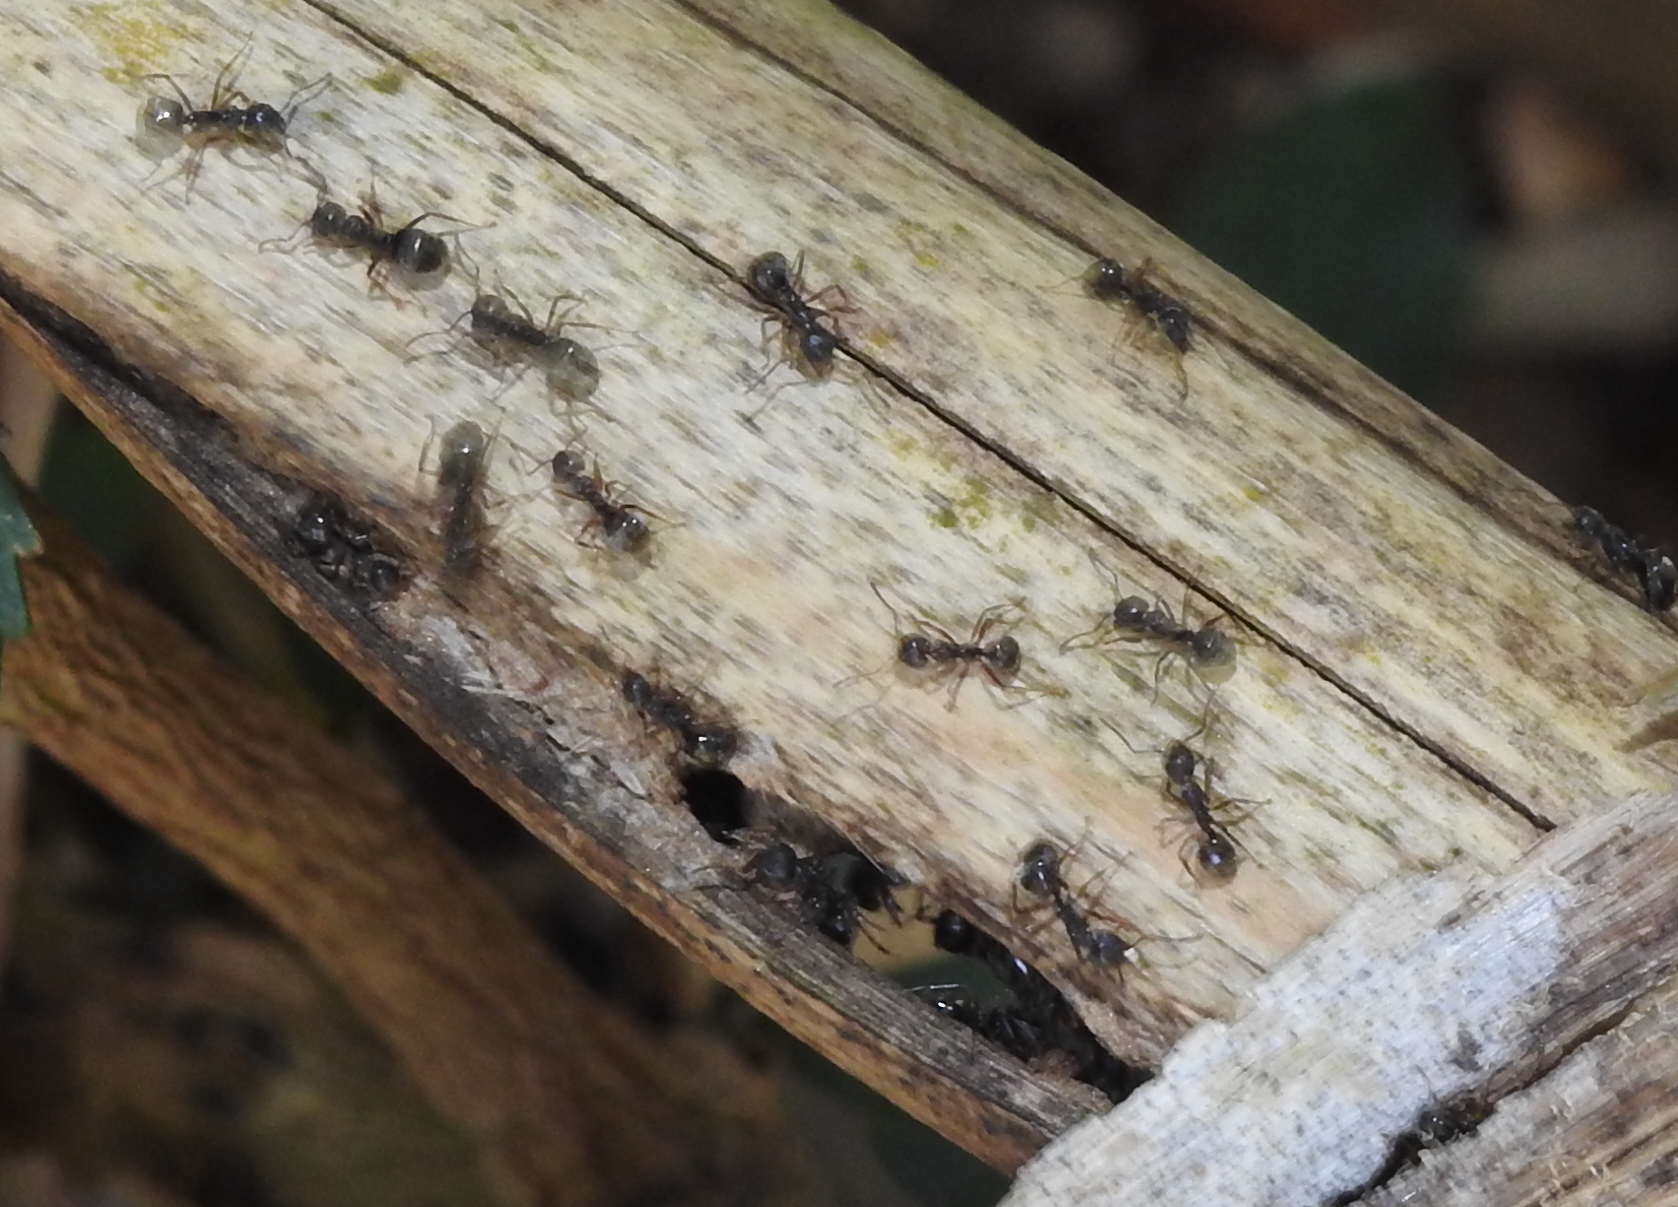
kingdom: Animalia
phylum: Arthropoda
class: Insecta
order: Hymenoptera
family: Formicidae
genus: Dolichoderus
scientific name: Dolichoderus thoracicus
